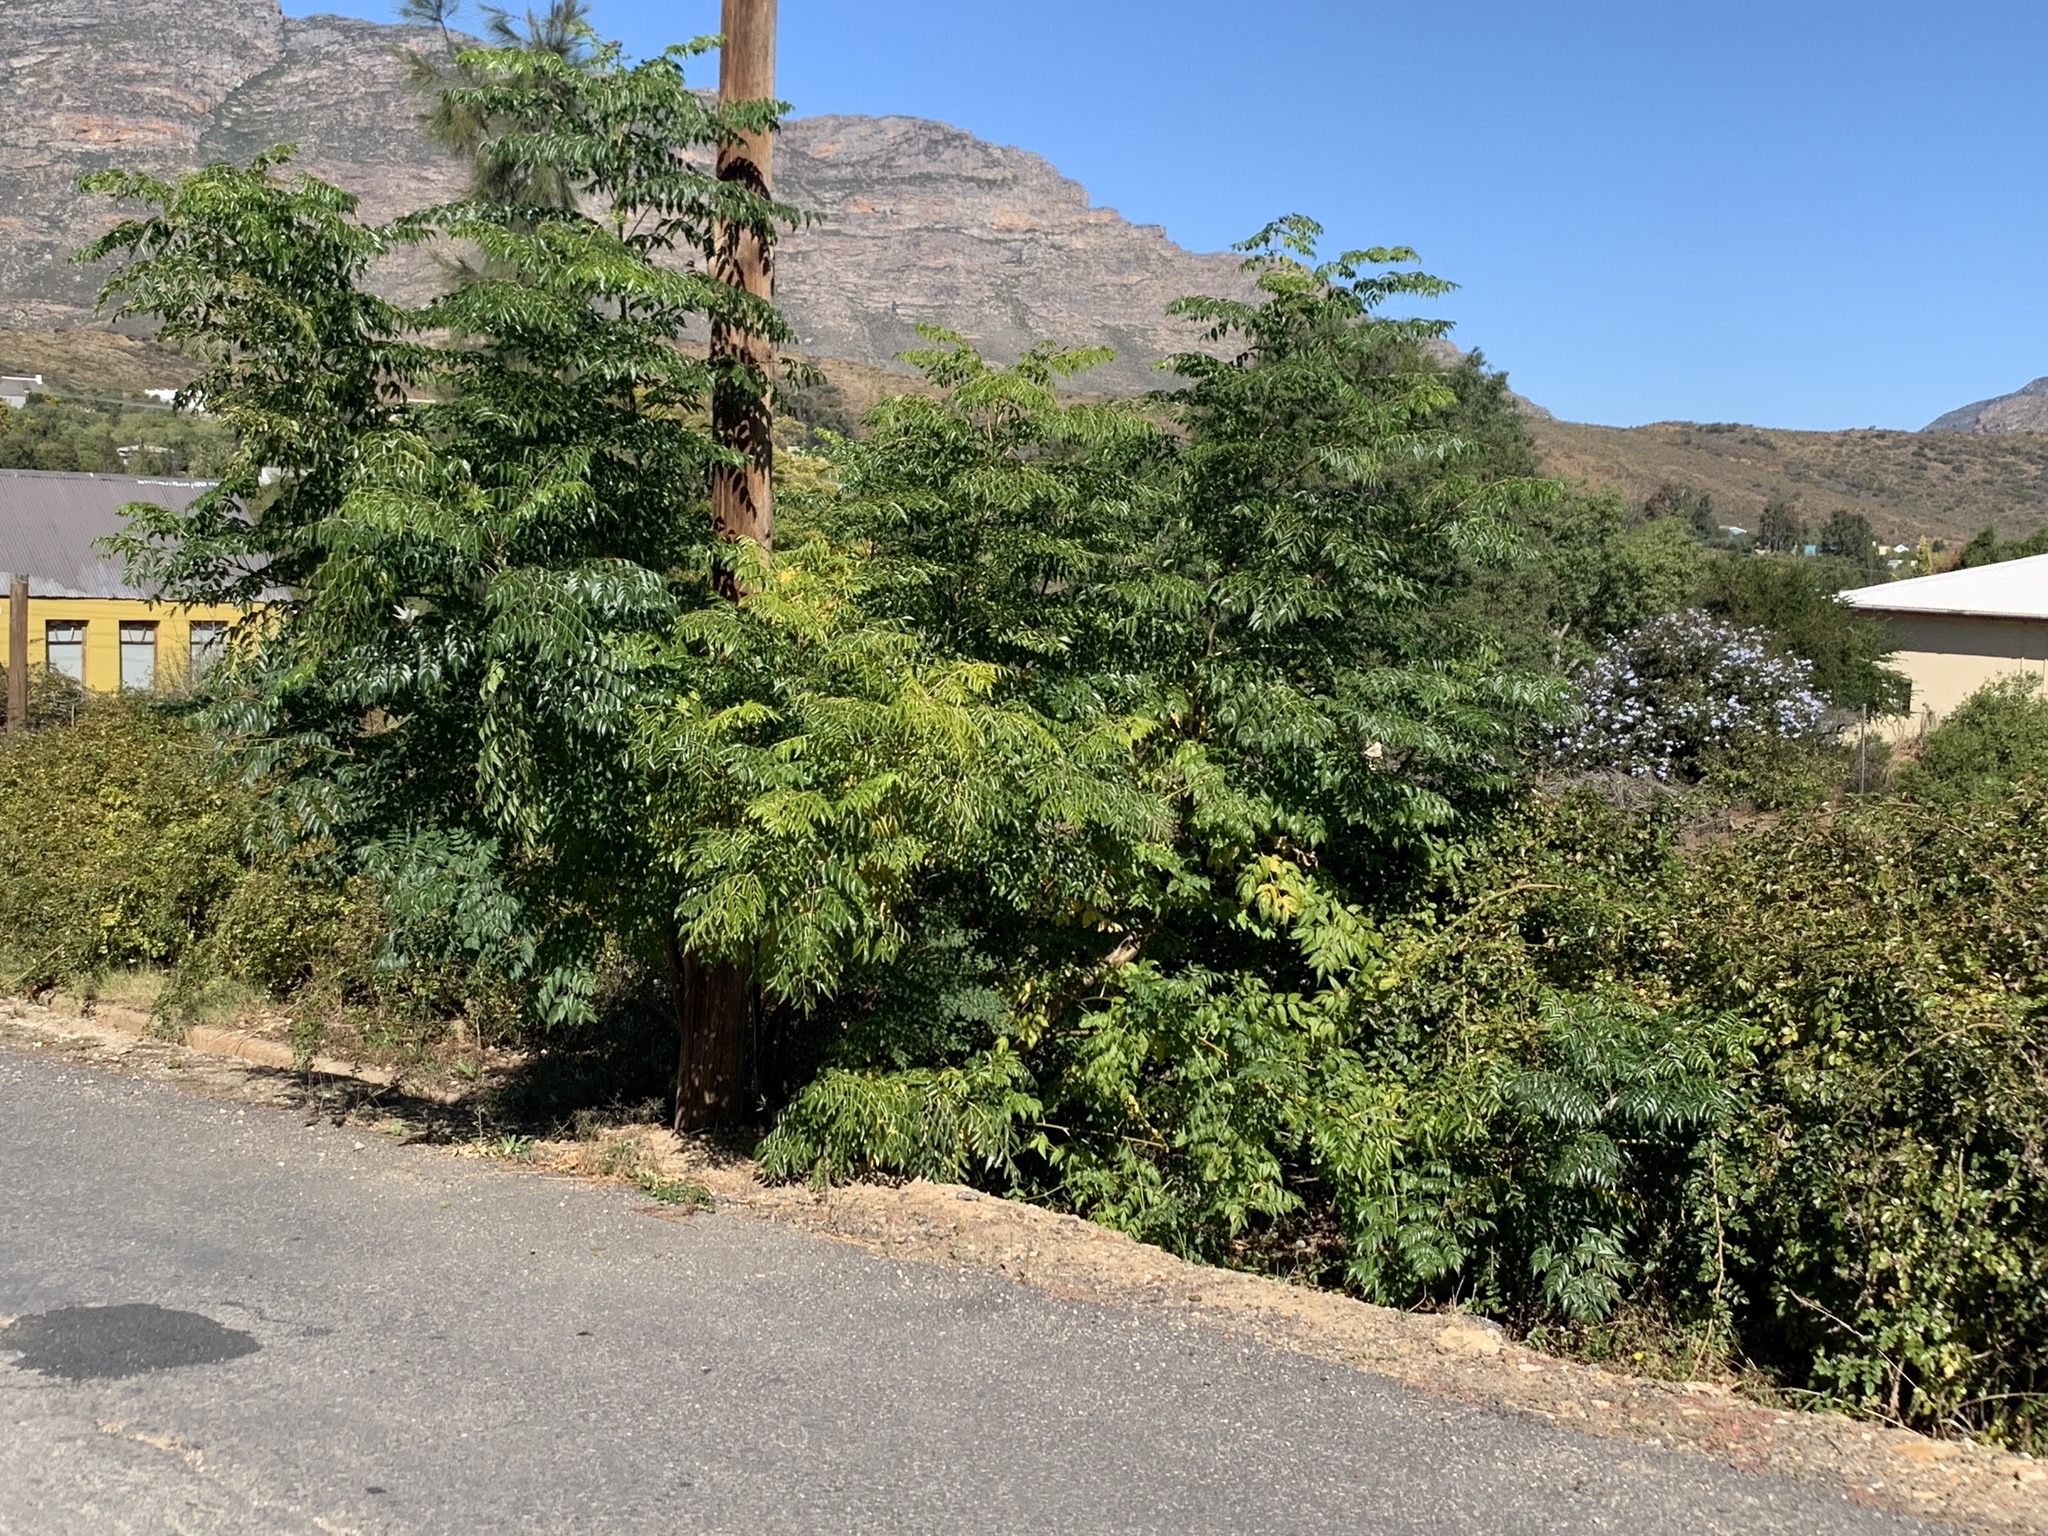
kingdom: Plantae
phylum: Tracheophyta
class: Magnoliopsida
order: Sapindales
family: Meliaceae
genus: Melia
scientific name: Melia azedarach
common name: Chinaberrytree
